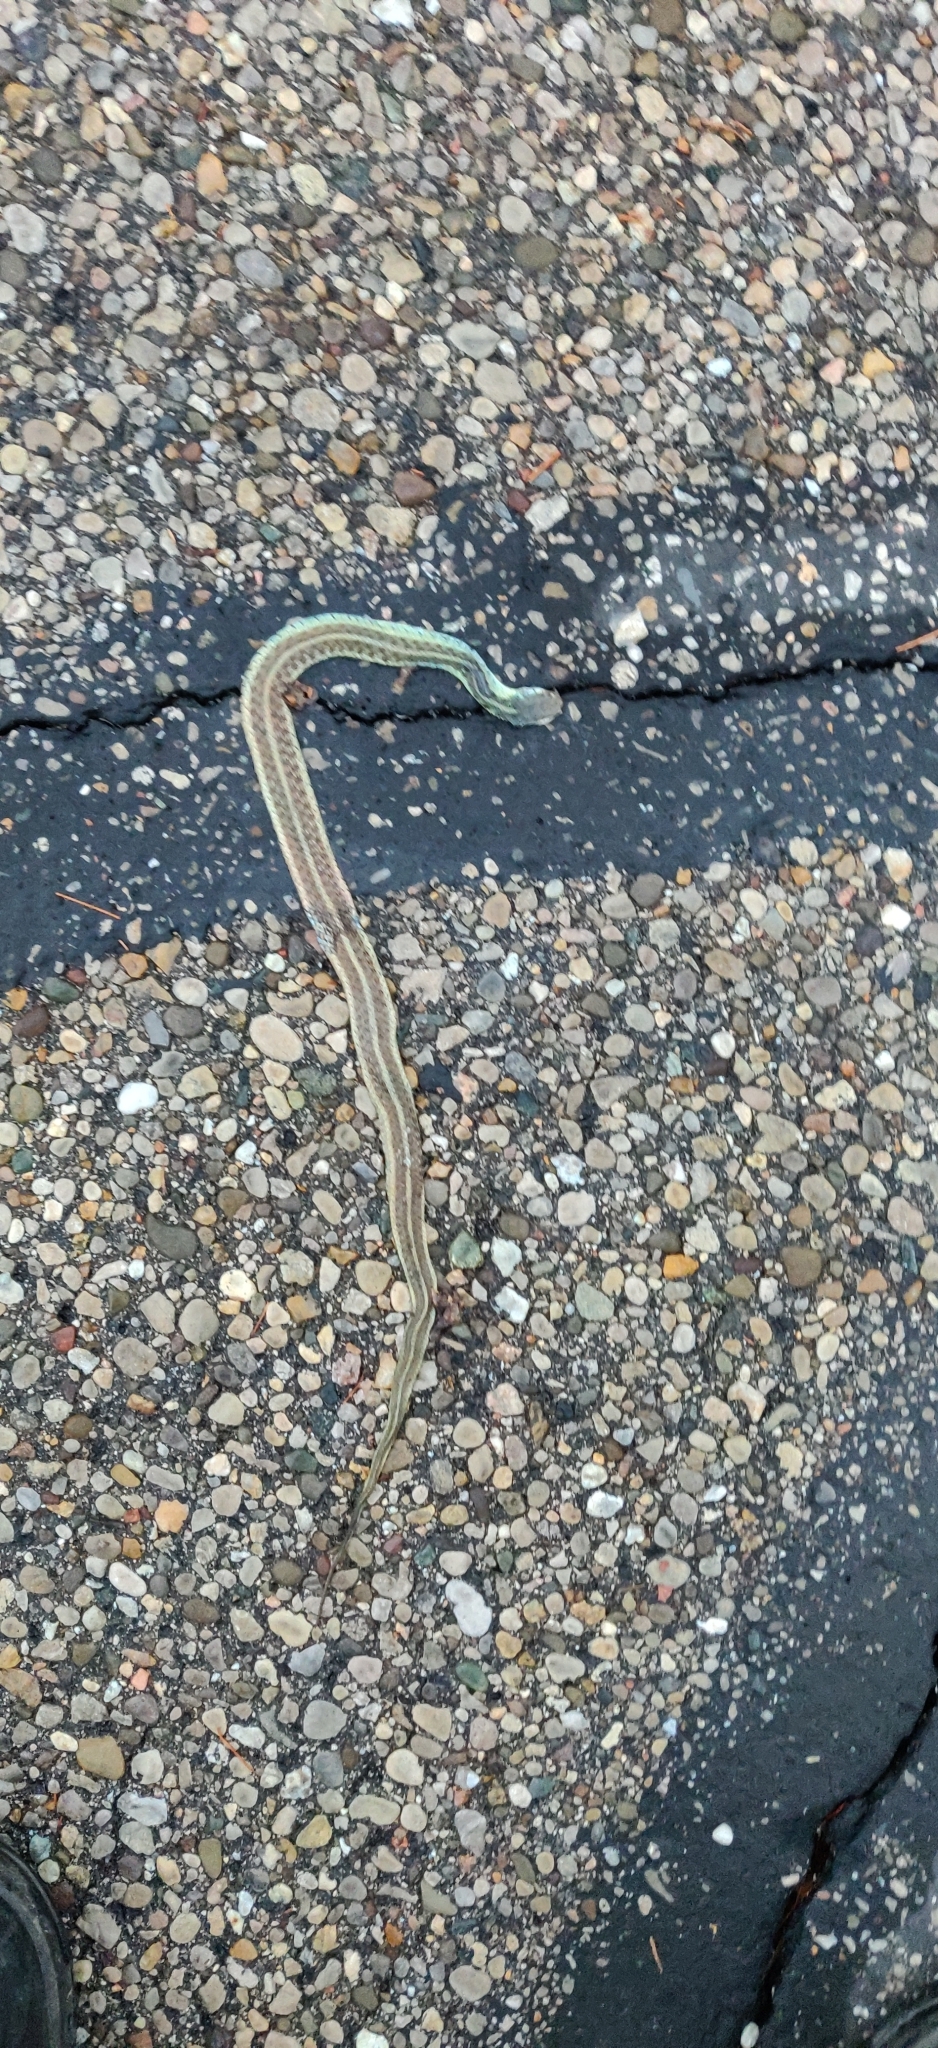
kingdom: Animalia
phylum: Chordata
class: Squamata
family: Colubridae
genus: Thamnophis
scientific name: Thamnophis sirtalis
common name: Common garter snake
